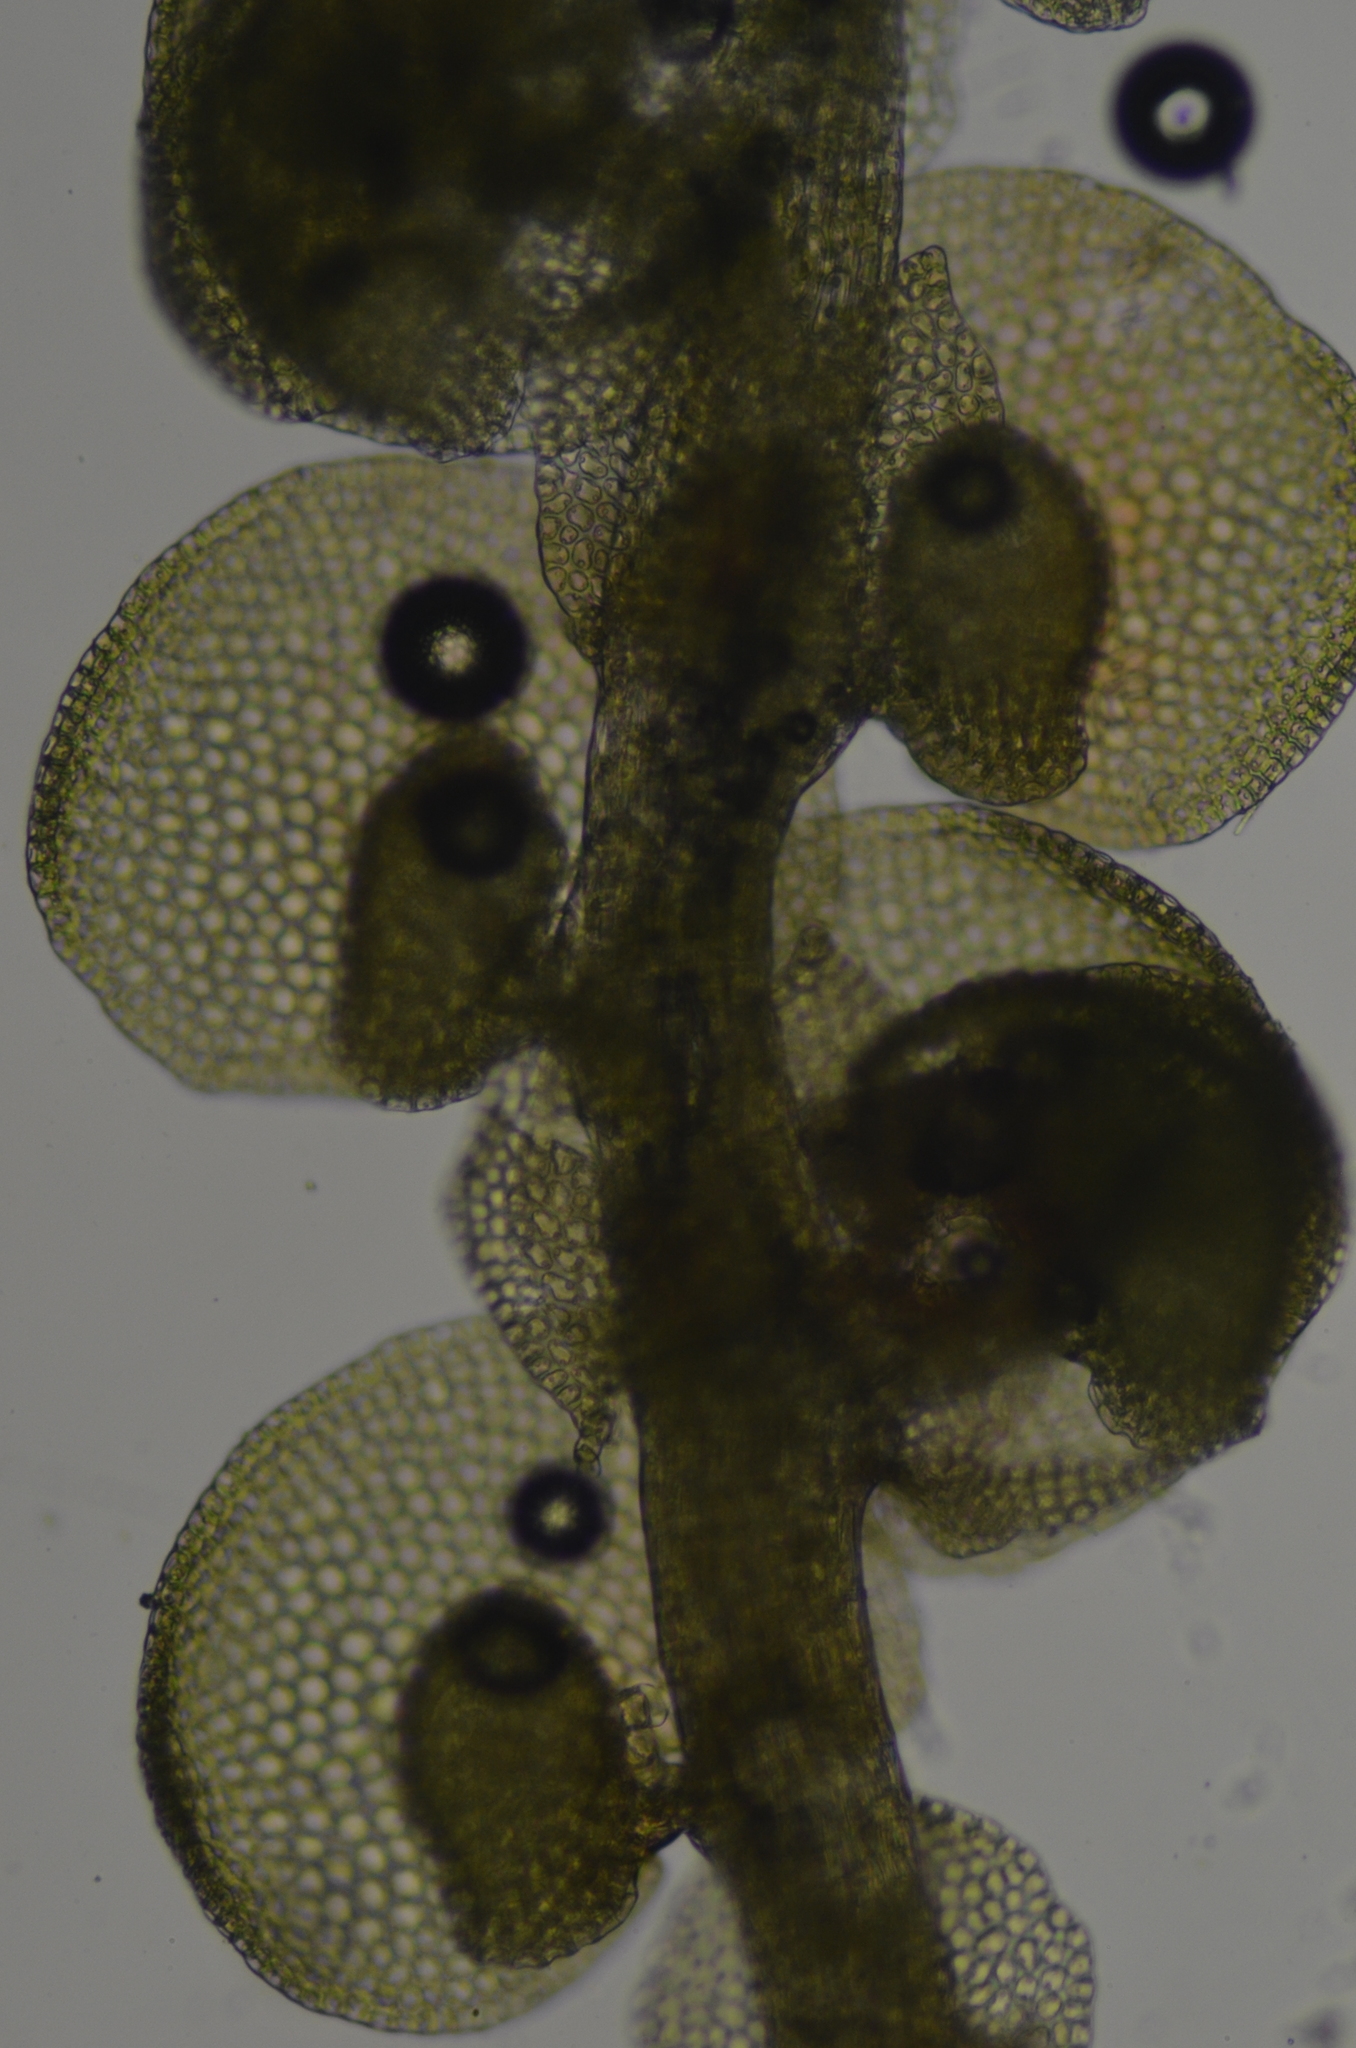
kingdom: Plantae
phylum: Marchantiophyta
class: Jungermanniopsida
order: Porellales
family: Frullaniaceae
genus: Frullania
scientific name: Frullania californica
